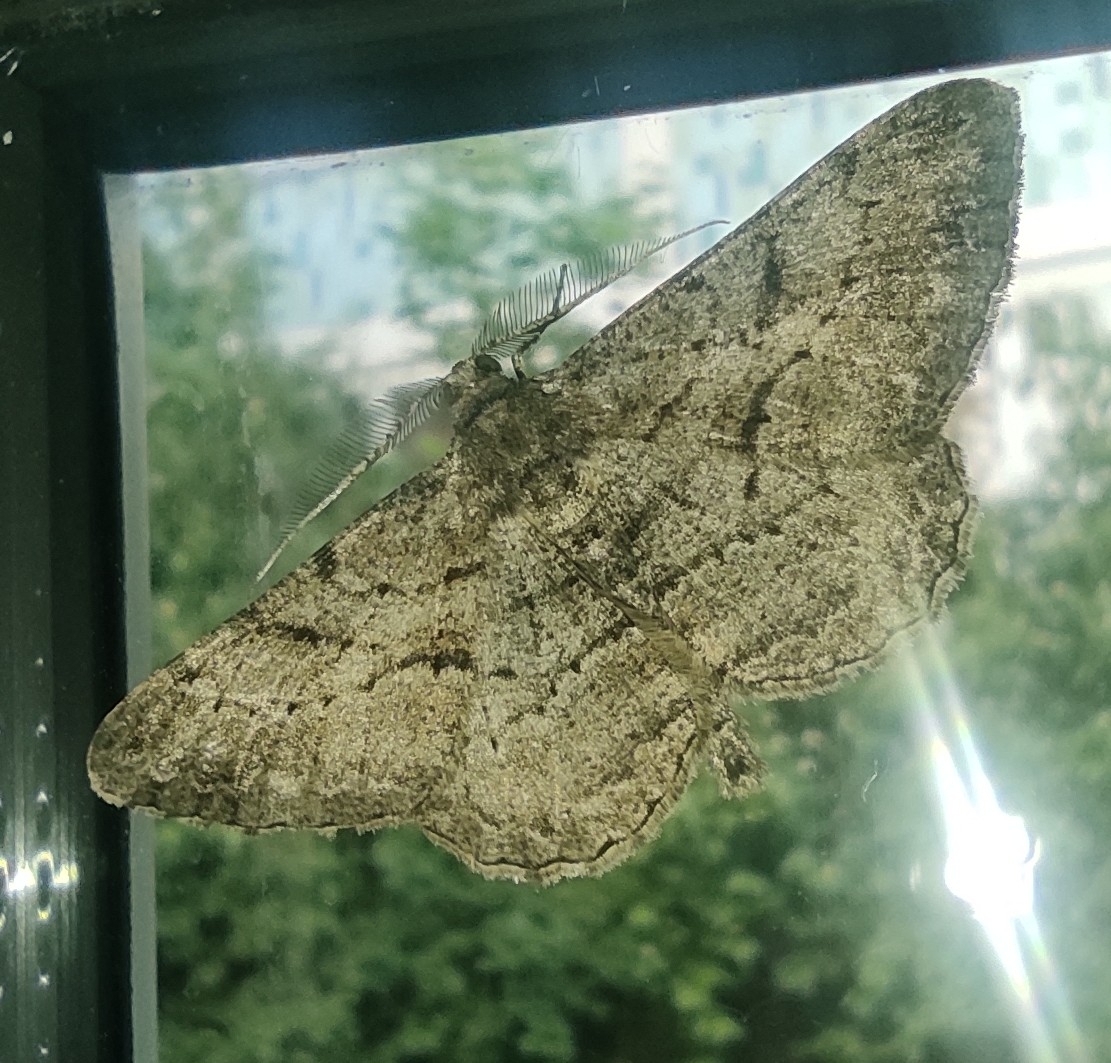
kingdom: Animalia
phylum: Arthropoda
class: Insecta
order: Lepidoptera
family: Geometridae
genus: Peribatodes
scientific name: Peribatodes rhomboidaria
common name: Willow beauty
